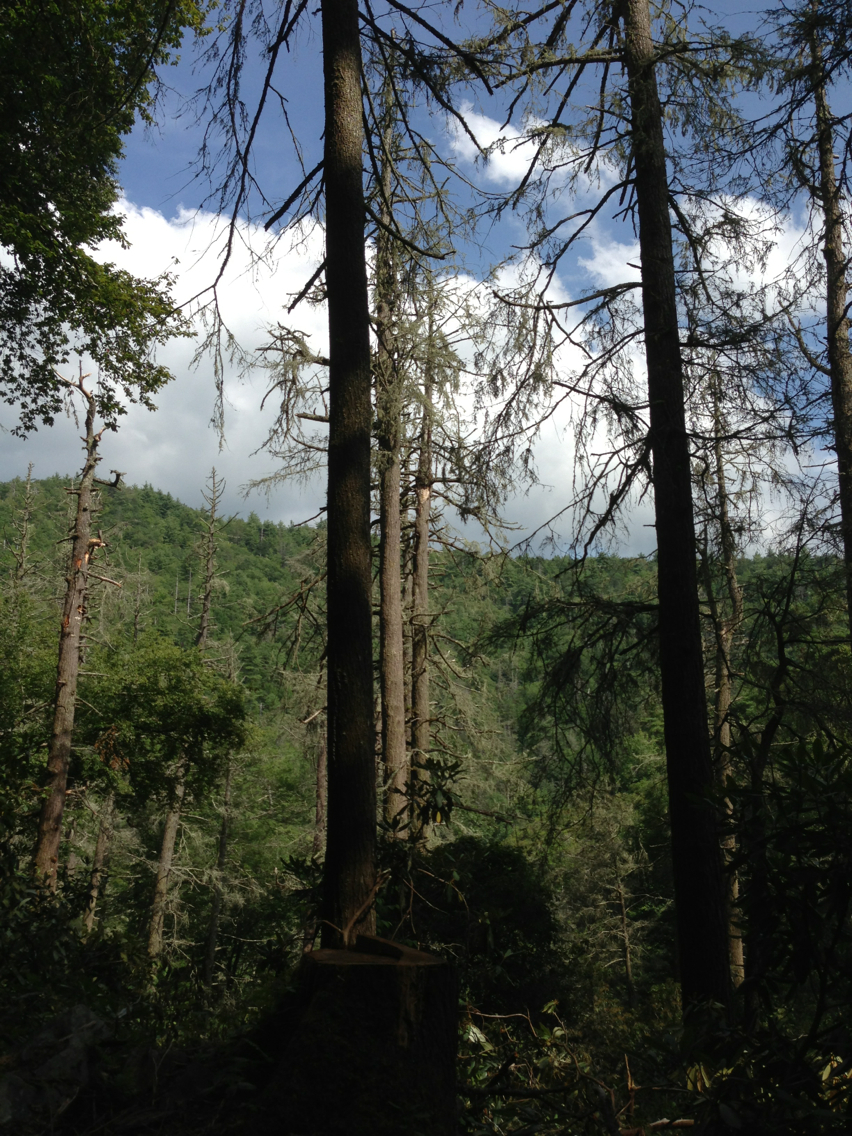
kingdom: Plantae
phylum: Tracheophyta
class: Pinopsida
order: Pinales
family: Pinaceae
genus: Tsuga
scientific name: Tsuga canadensis
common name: Eastern hemlock
